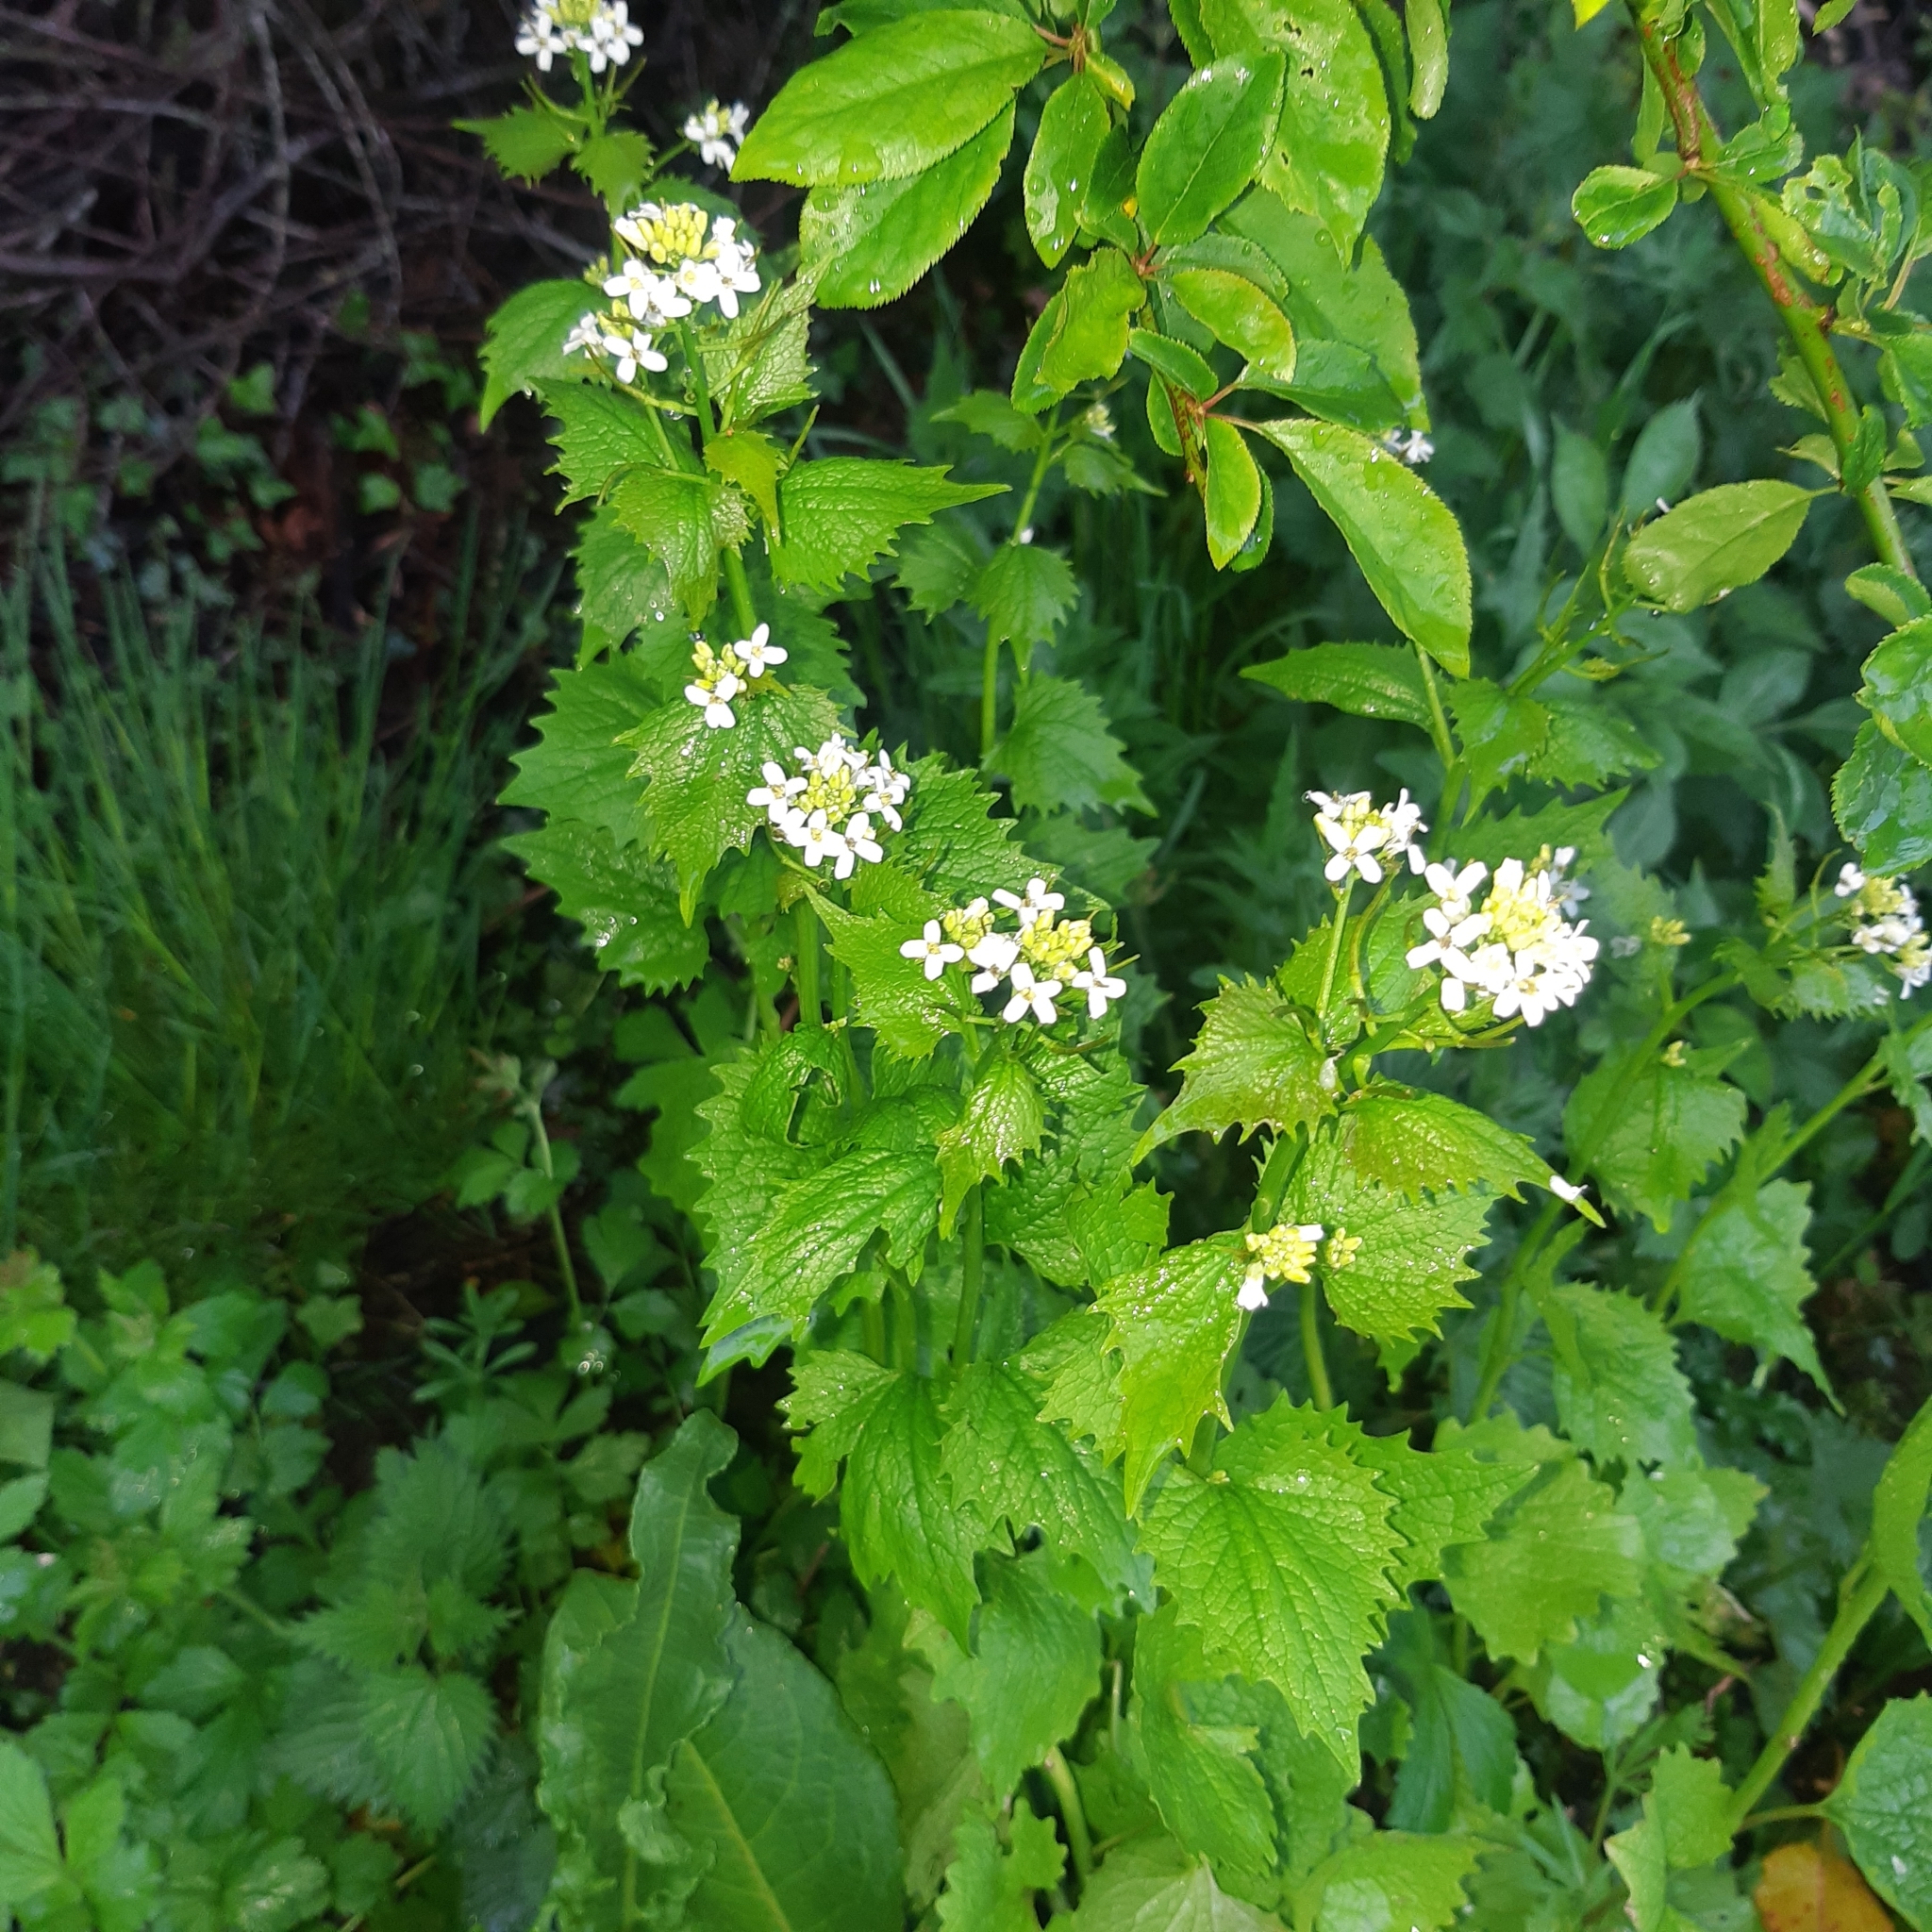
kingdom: Plantae
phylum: Tracheophyta
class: Magnoliopsida
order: Brassicales
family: Brassicaceae
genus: Alliaria
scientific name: Alliaria petiolata
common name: Garlic mustard
